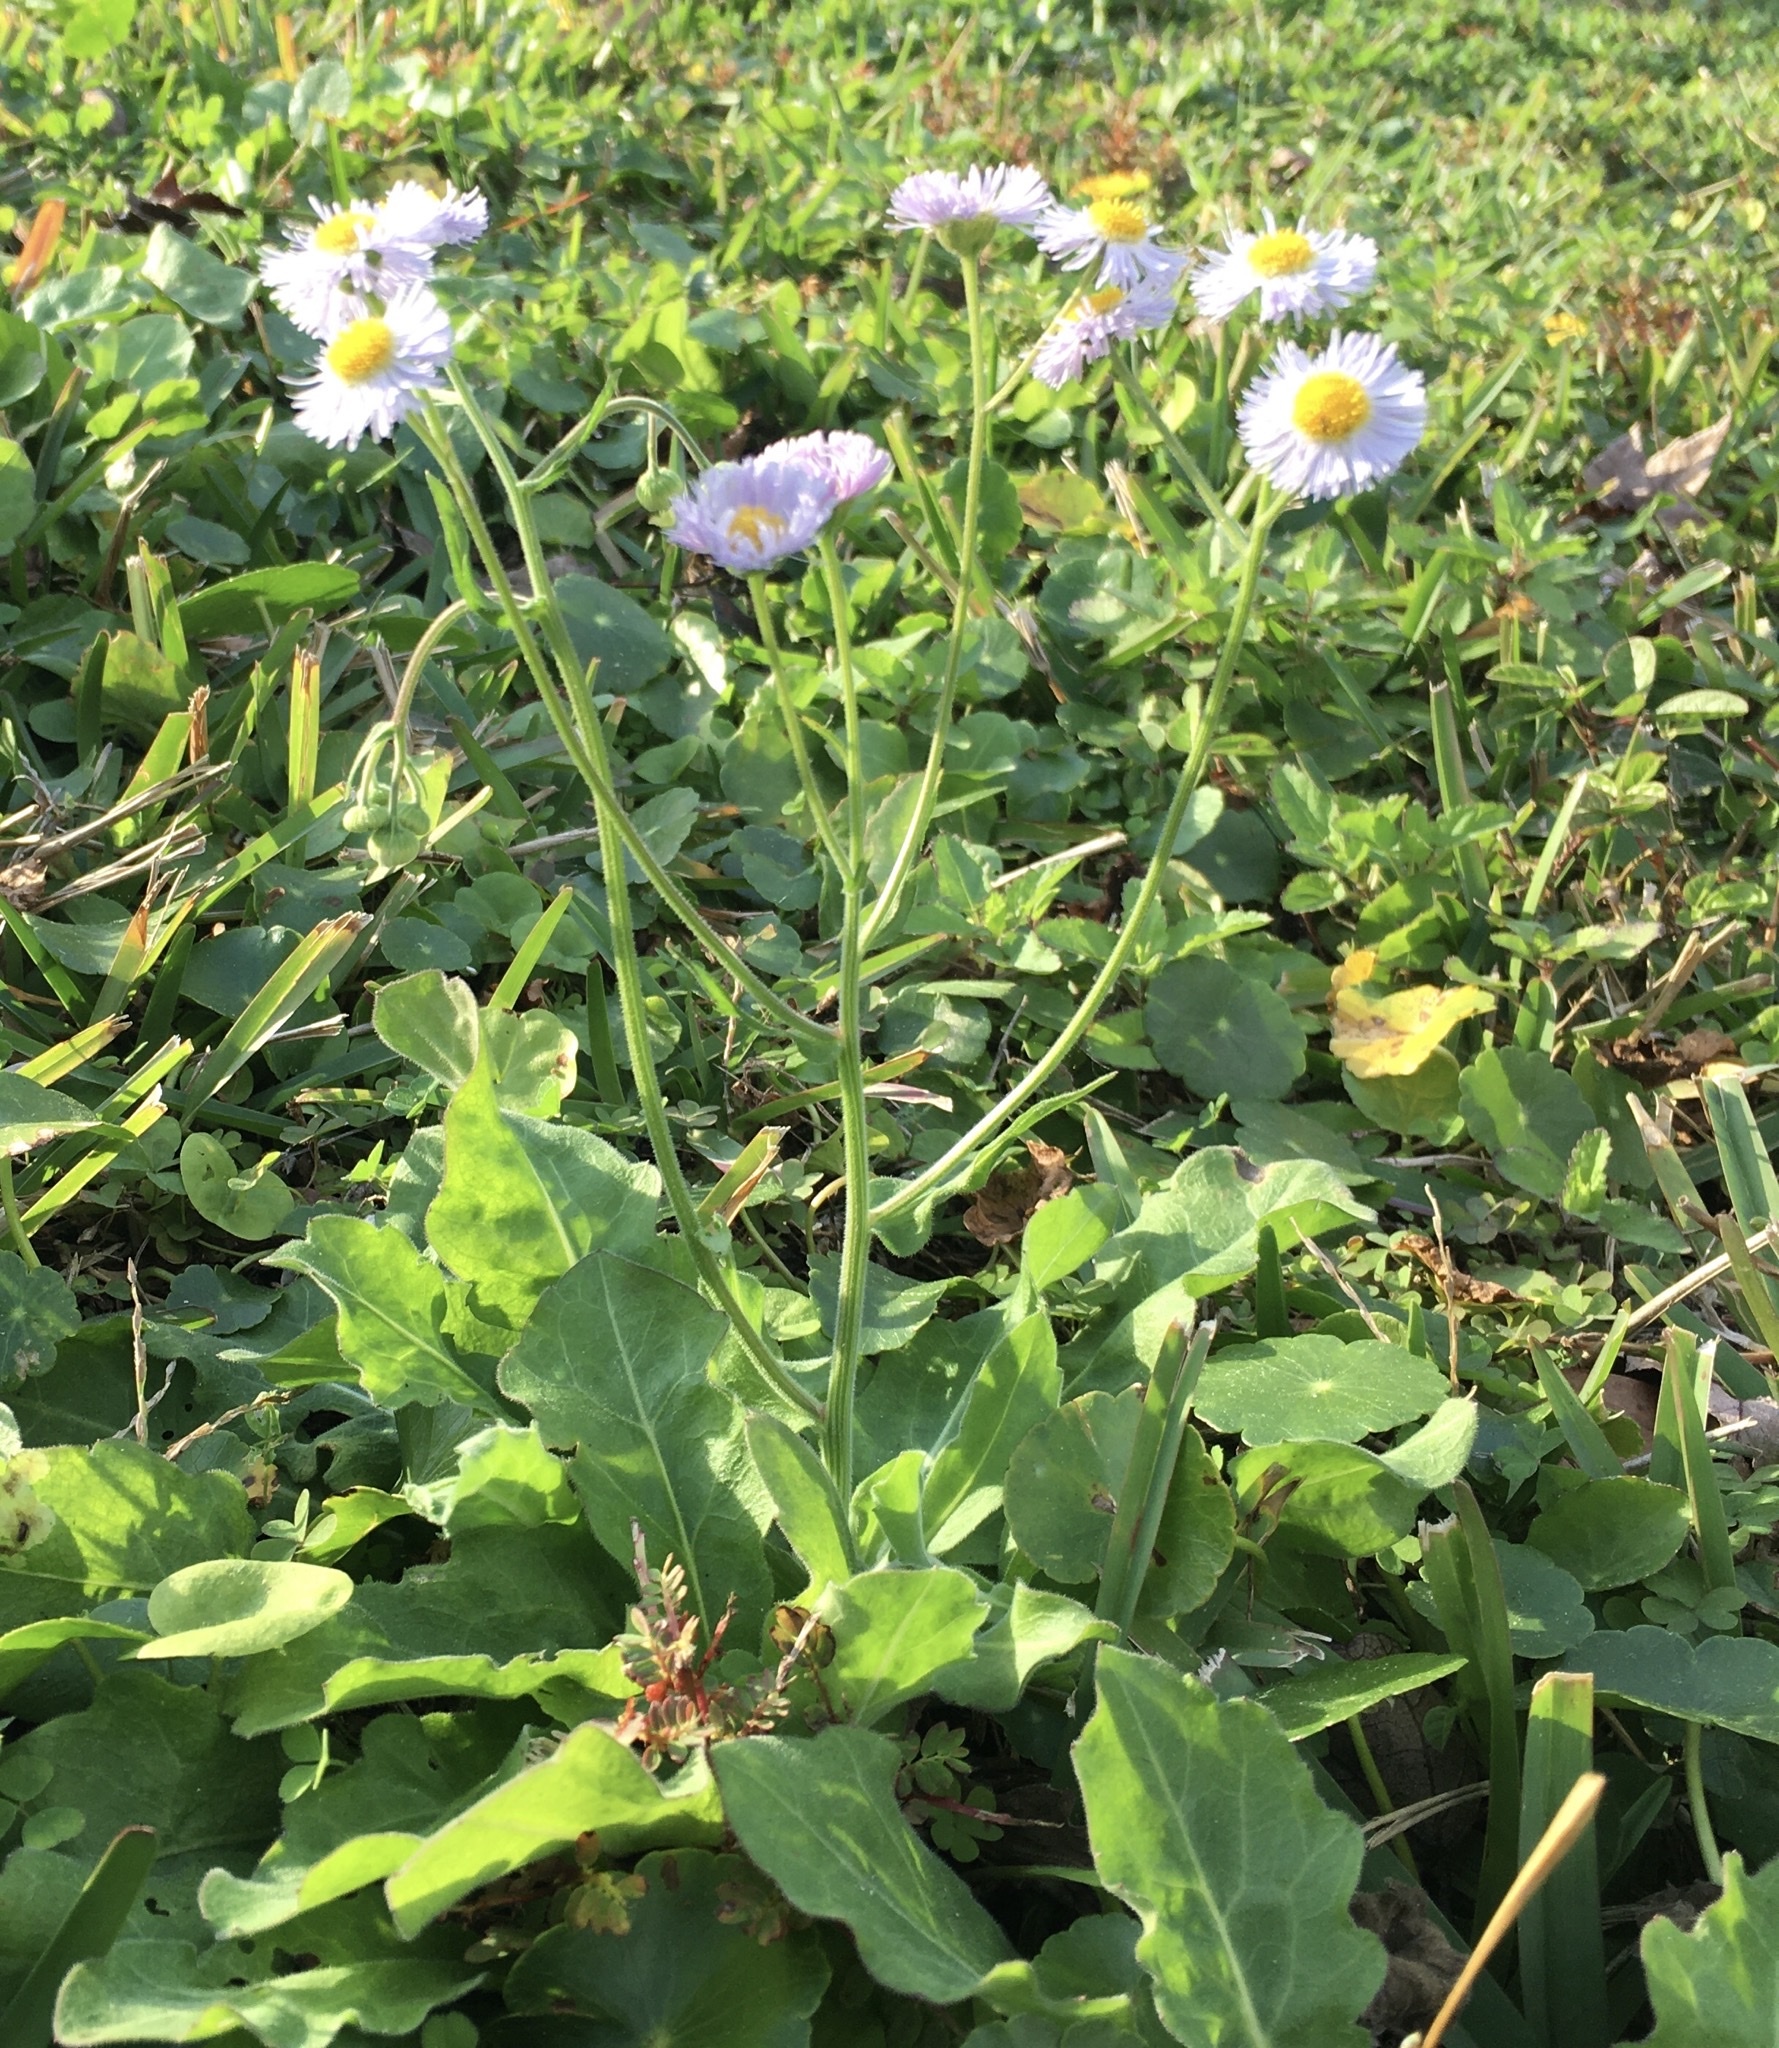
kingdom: Plantae
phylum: Tracheophyta
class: Magnoliopsida
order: Asterales
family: Asteraceae
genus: Erigeron
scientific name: Erigeron quercifolius
